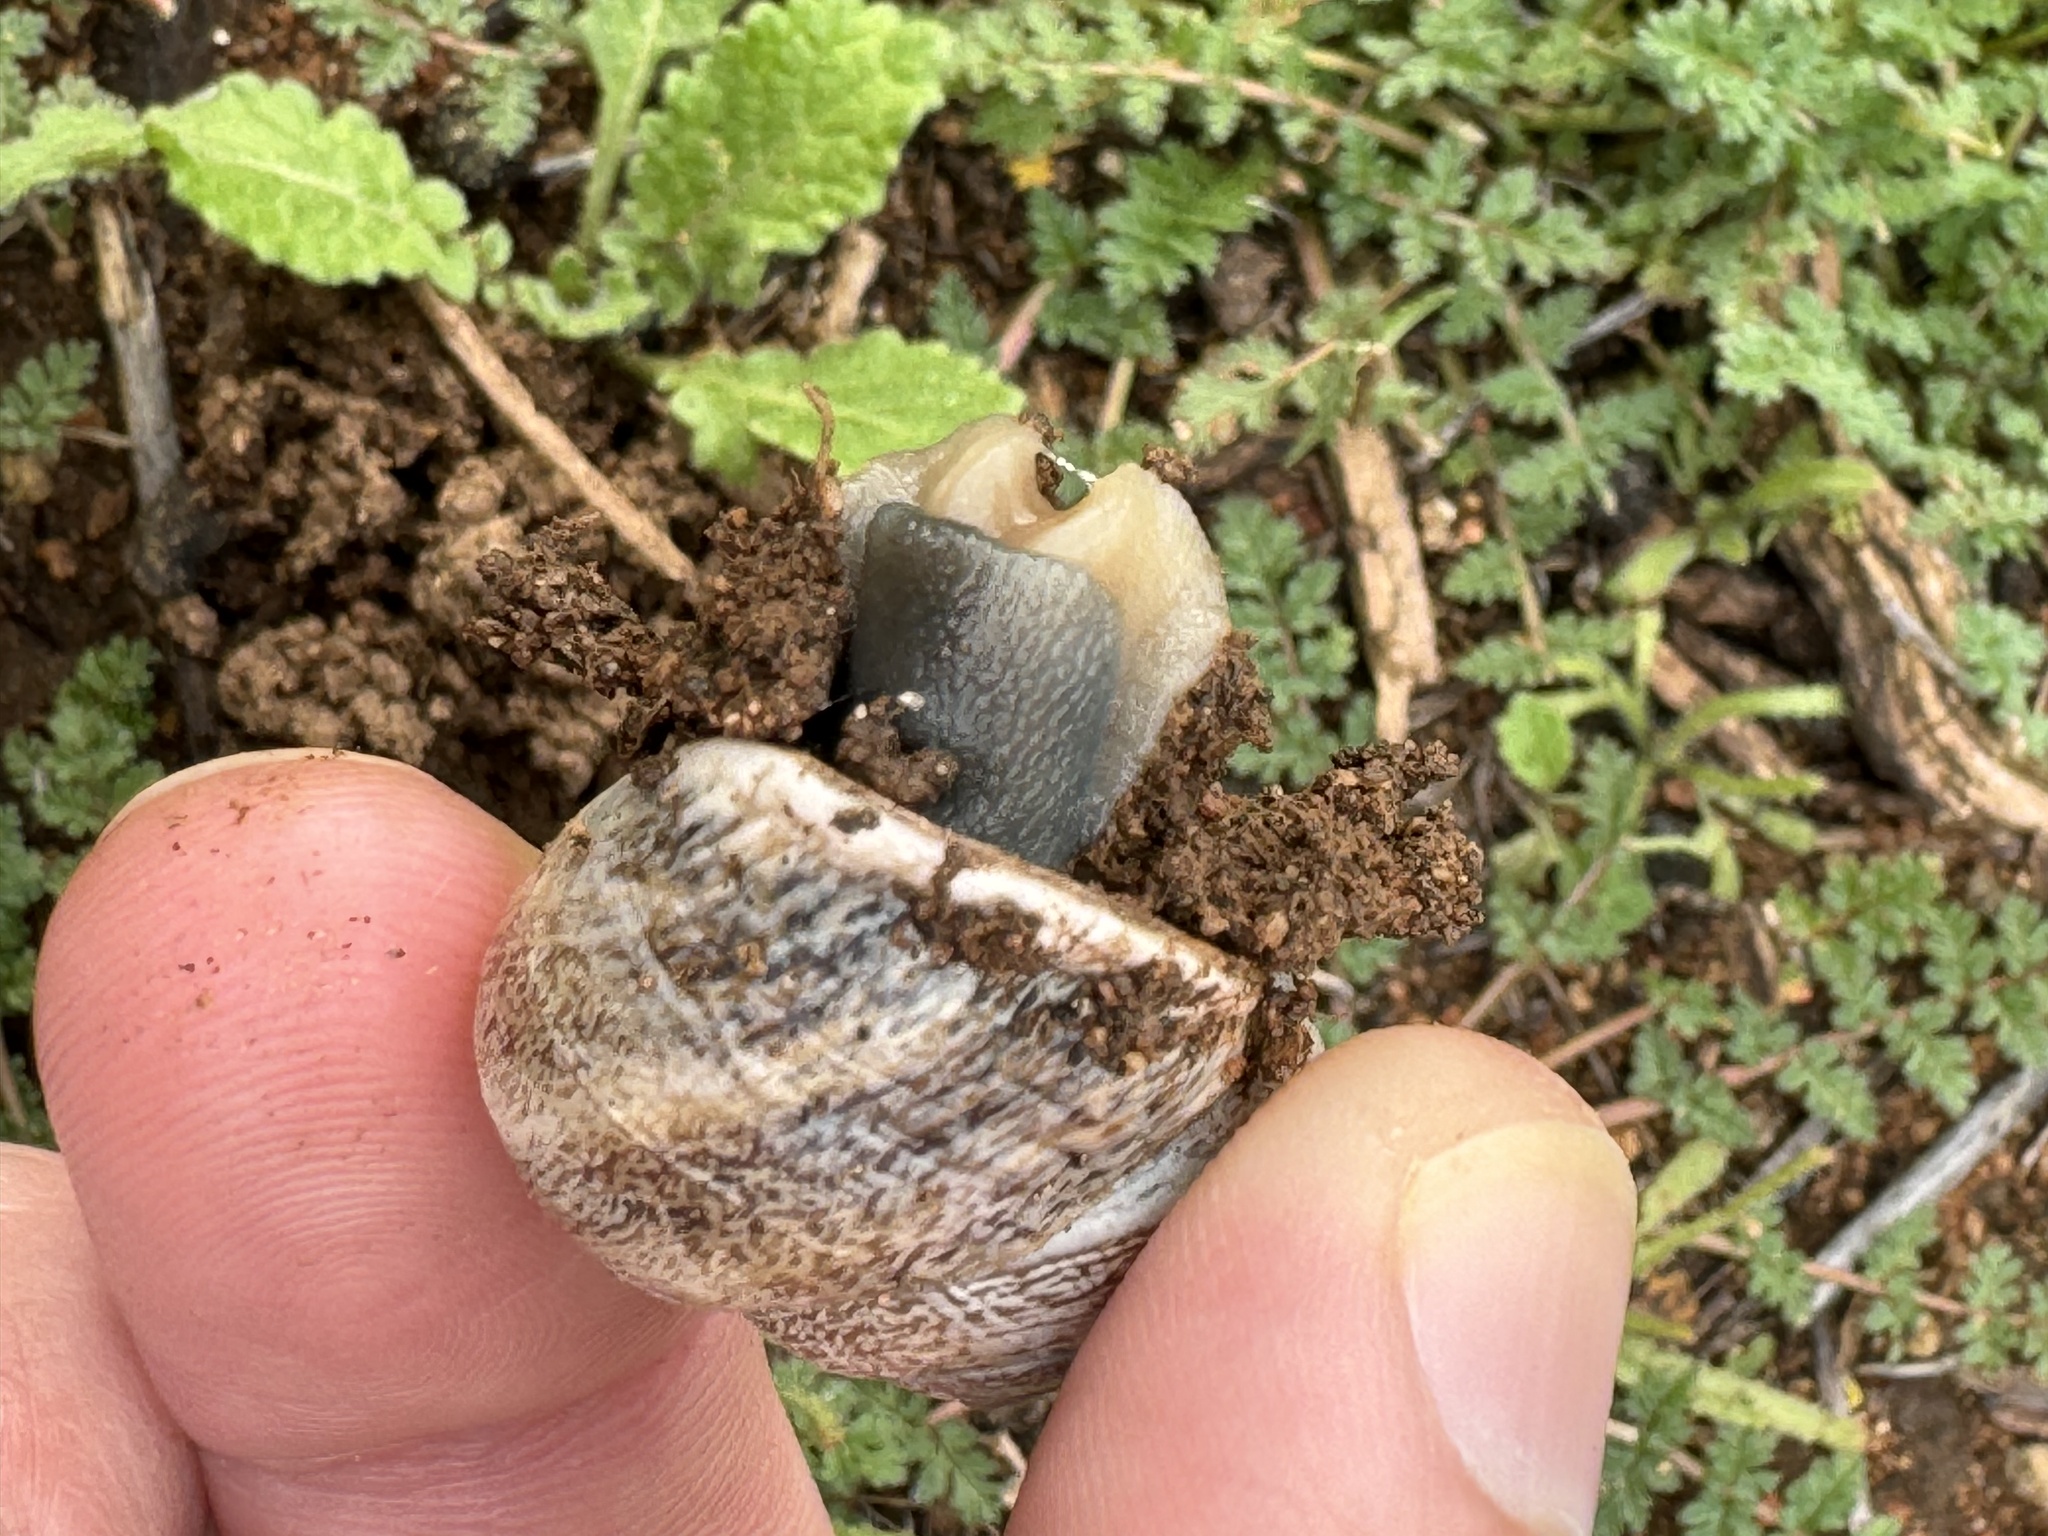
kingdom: Animalia
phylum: Mollusca
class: Gastropoda
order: Stylommatophora
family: Helicidae
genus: Otala
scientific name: Otala lactea
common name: Milk snail
